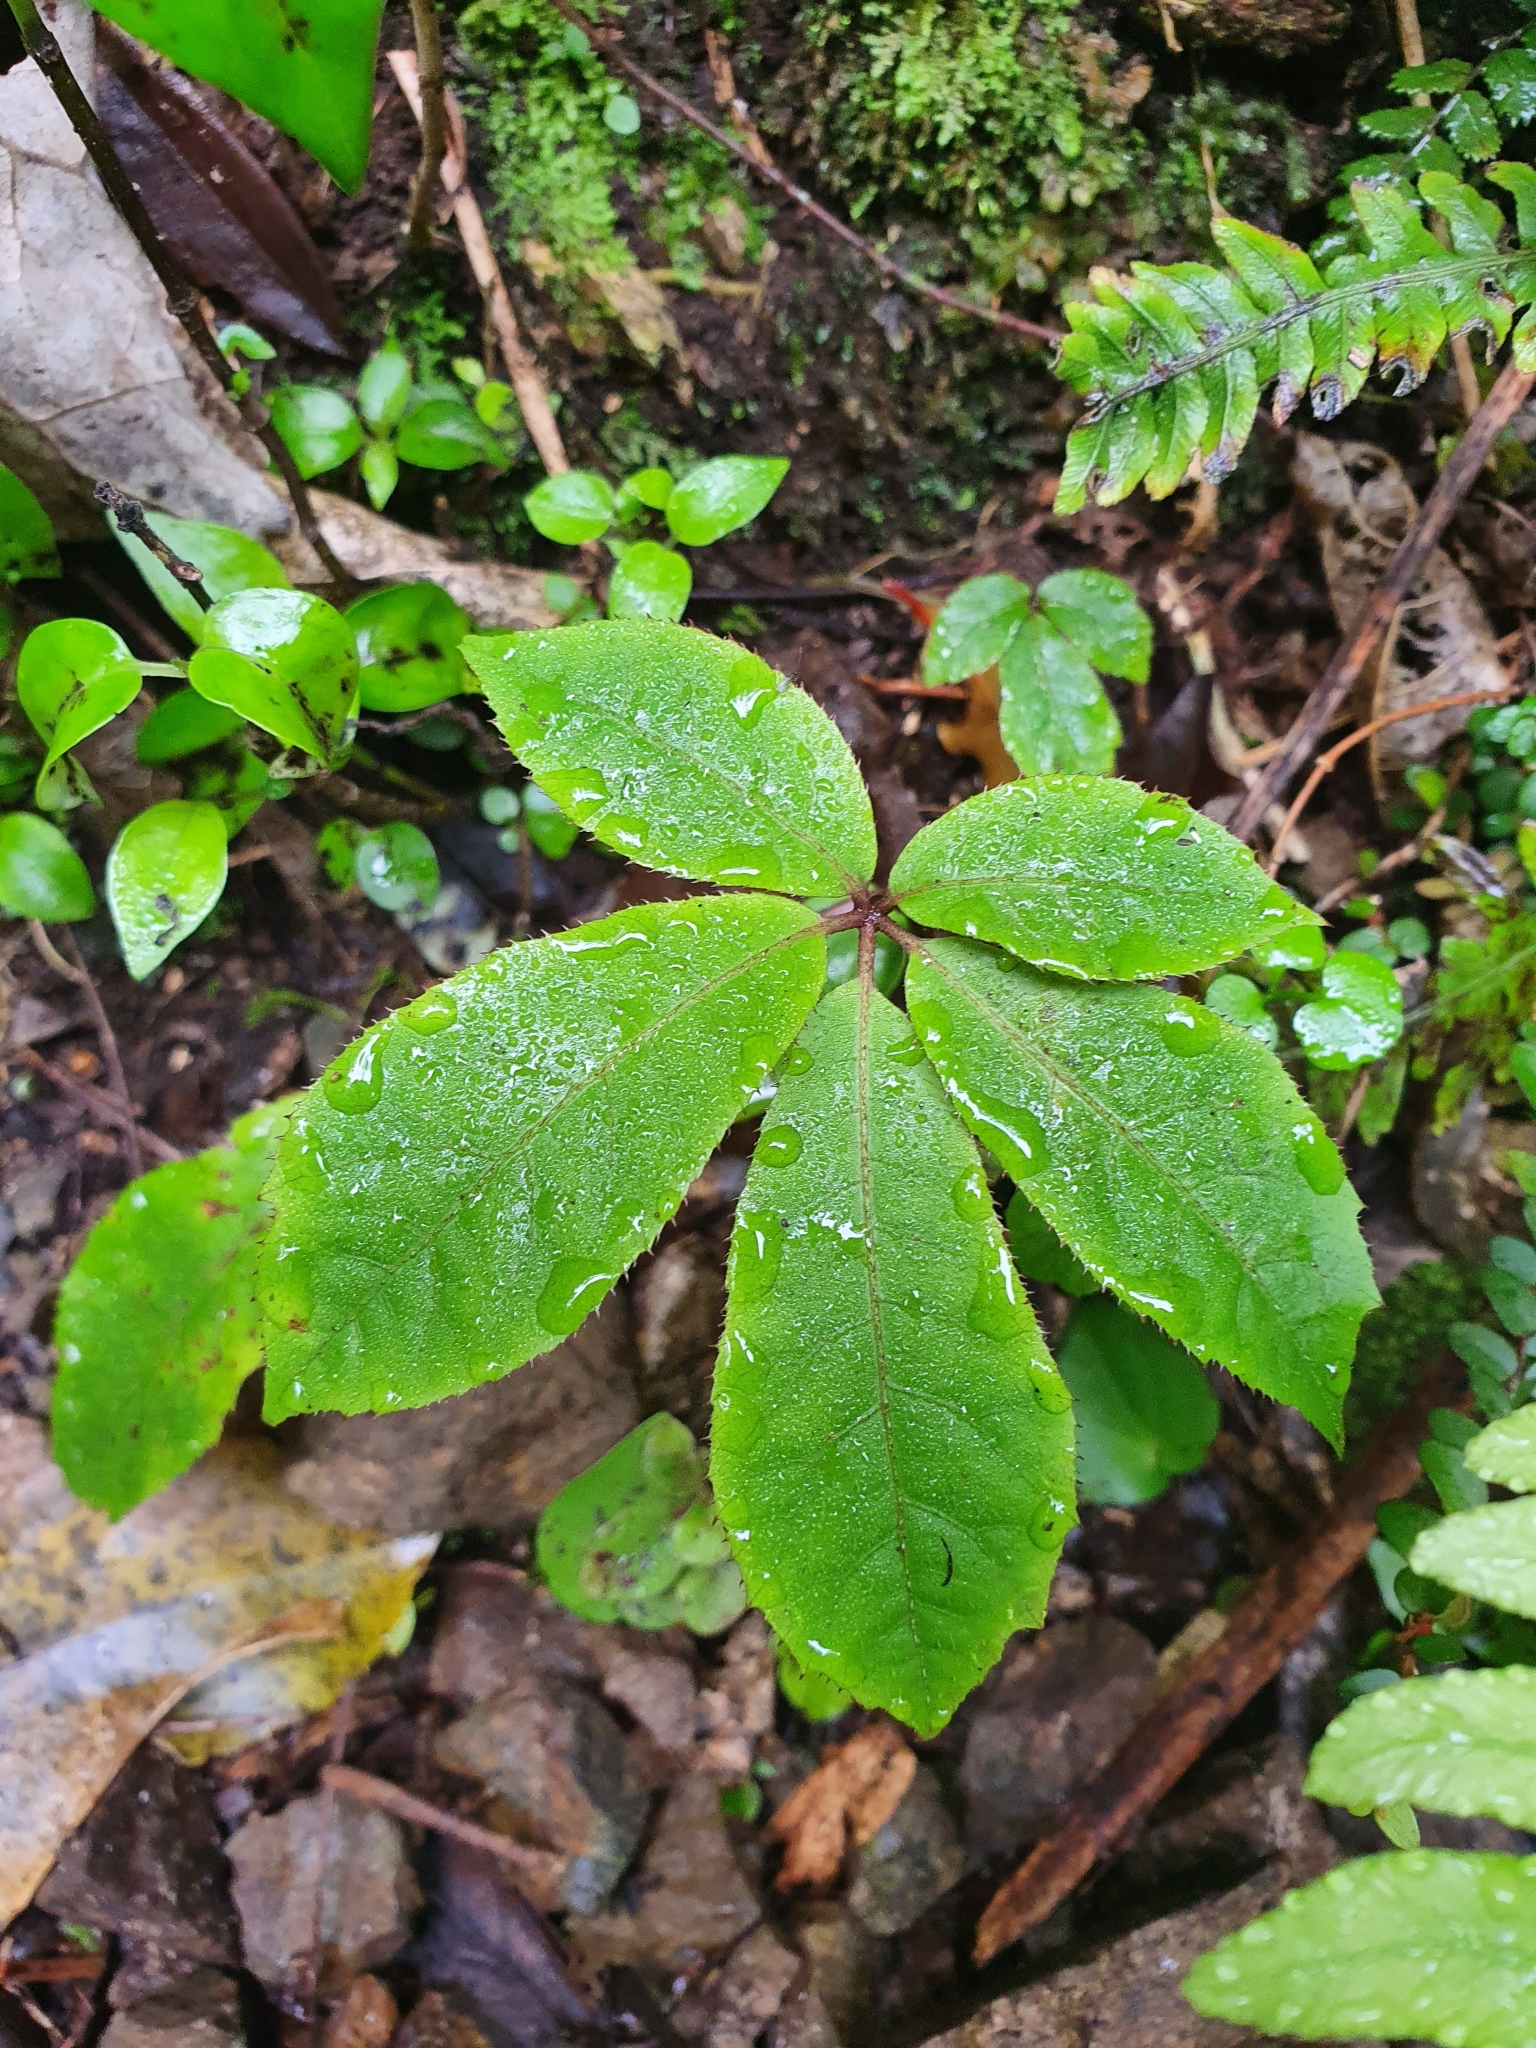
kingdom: Plantae
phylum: Tracheophyta
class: Magnoliopsida
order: Apiales
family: Araliaceae
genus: Schefflera
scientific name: Schefflera digitata
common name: Pate
